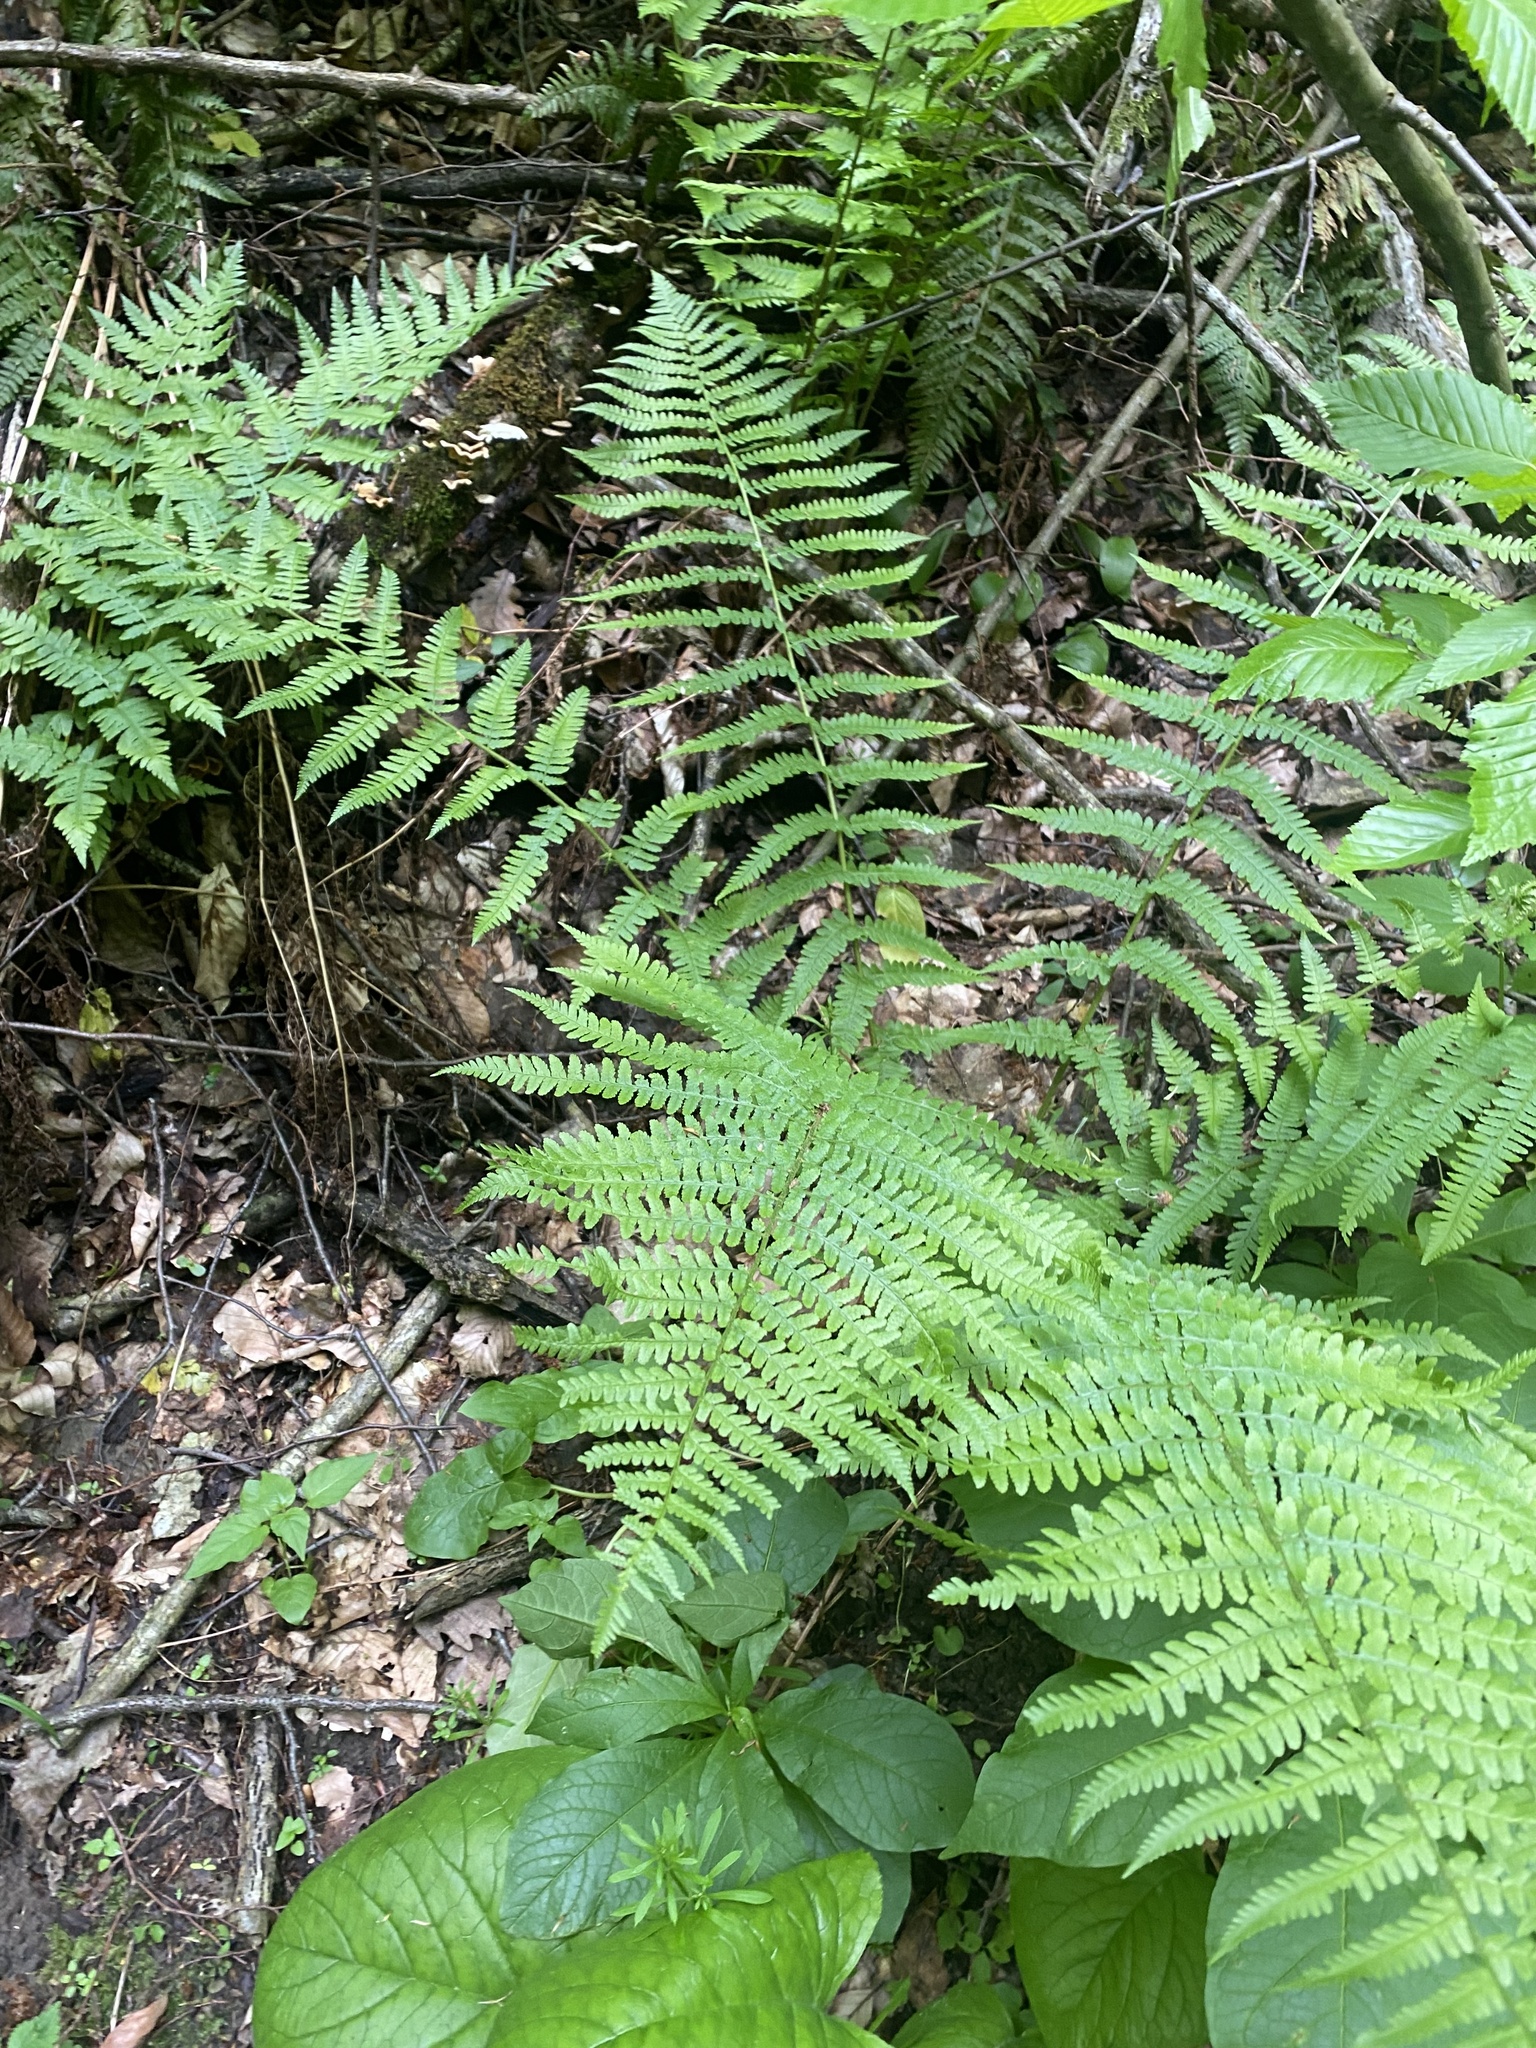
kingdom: Plantae
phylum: Tracheophyta
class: Polypodiopsida
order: Polypodiales
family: Dryopteridaceae
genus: Dryopteris
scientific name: Dryopteris filix-mas
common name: Male fern
